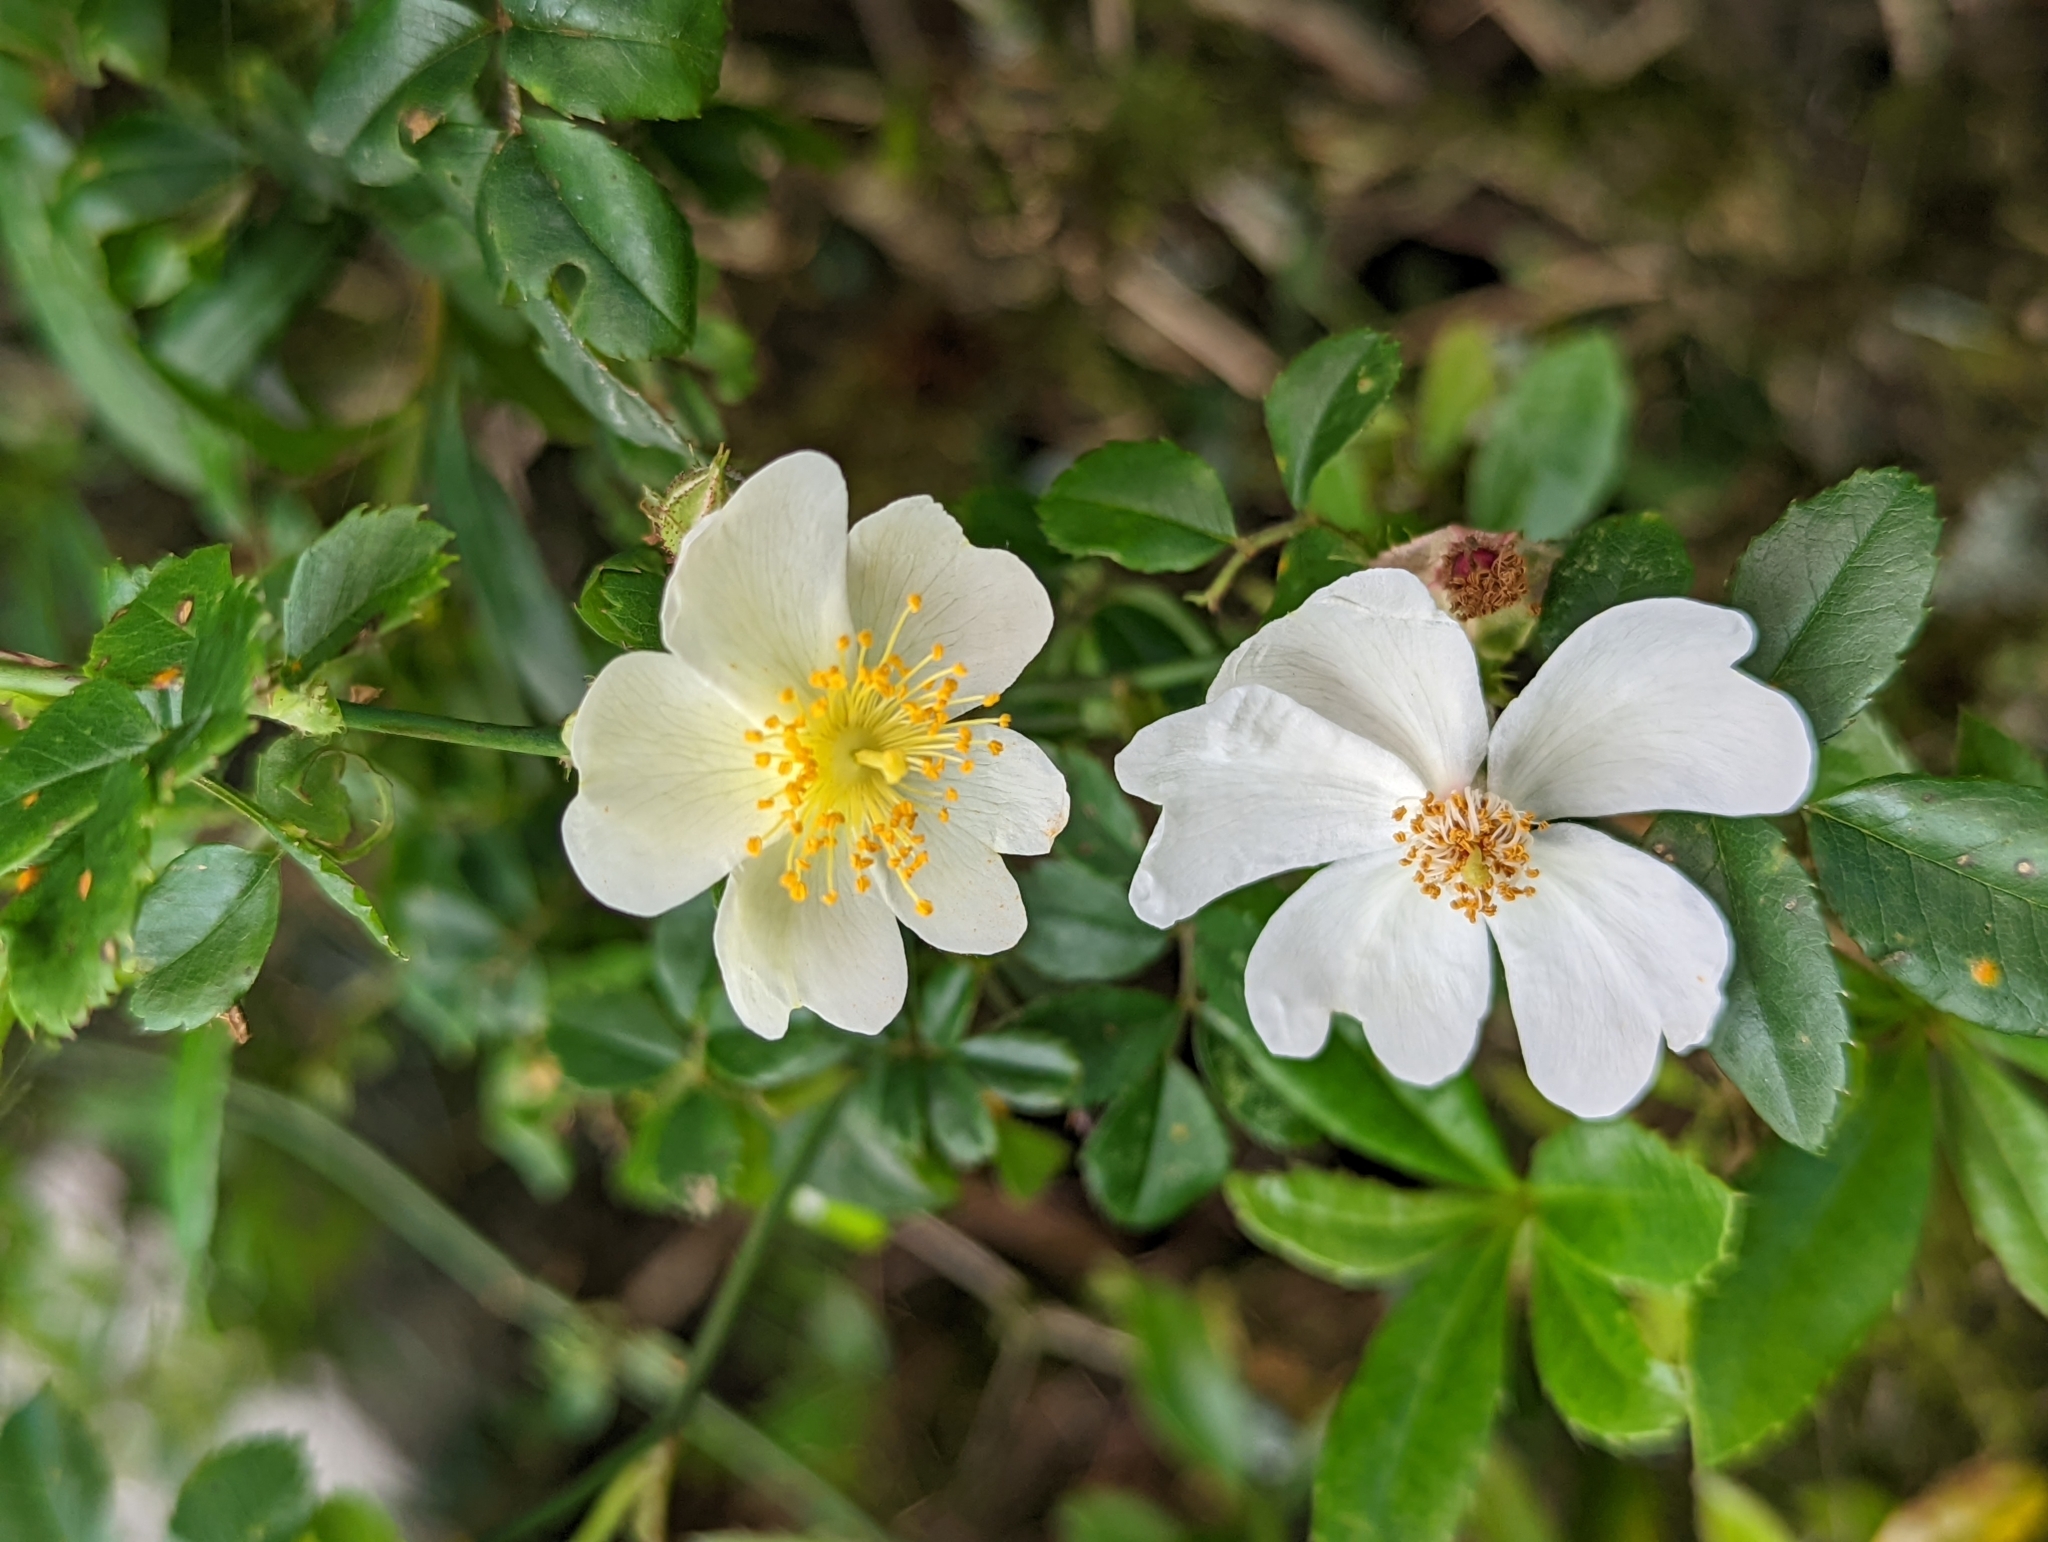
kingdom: Plantae
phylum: Tracheophyta
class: Magnoliopsida
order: Rosales
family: Rosaceae
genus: Rosa
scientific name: Rosa transmorrisonensis
